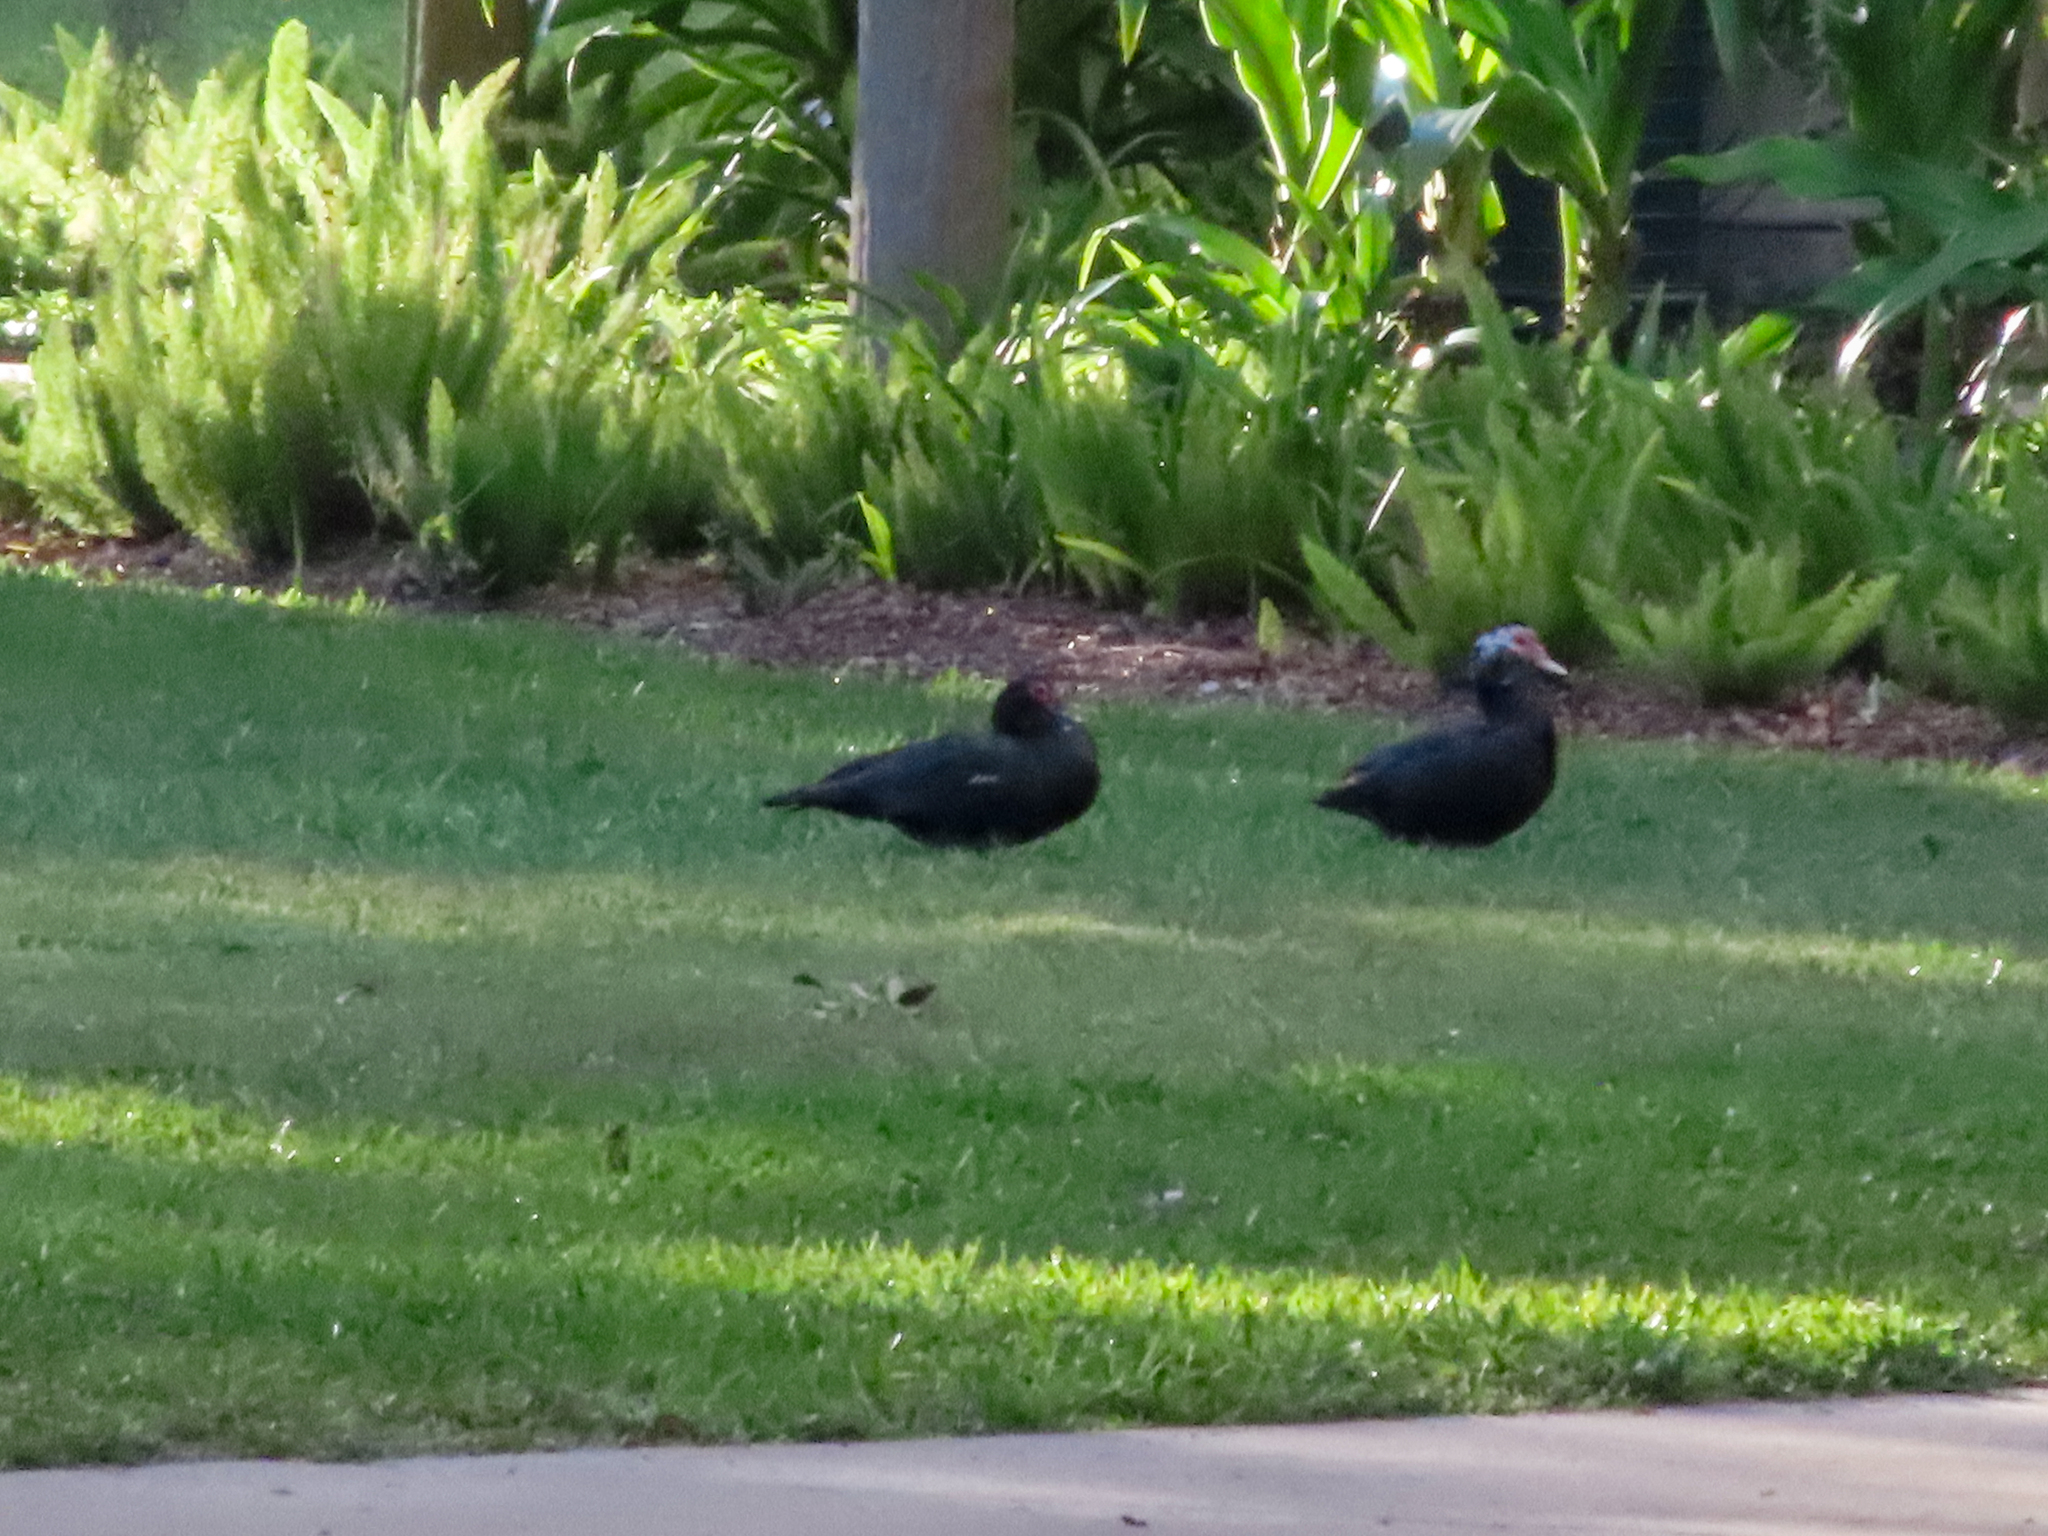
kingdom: Animalia
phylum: Chordata
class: Aves
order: Anseriformes
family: Anatidae
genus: Cairina
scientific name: Cairina moschata
